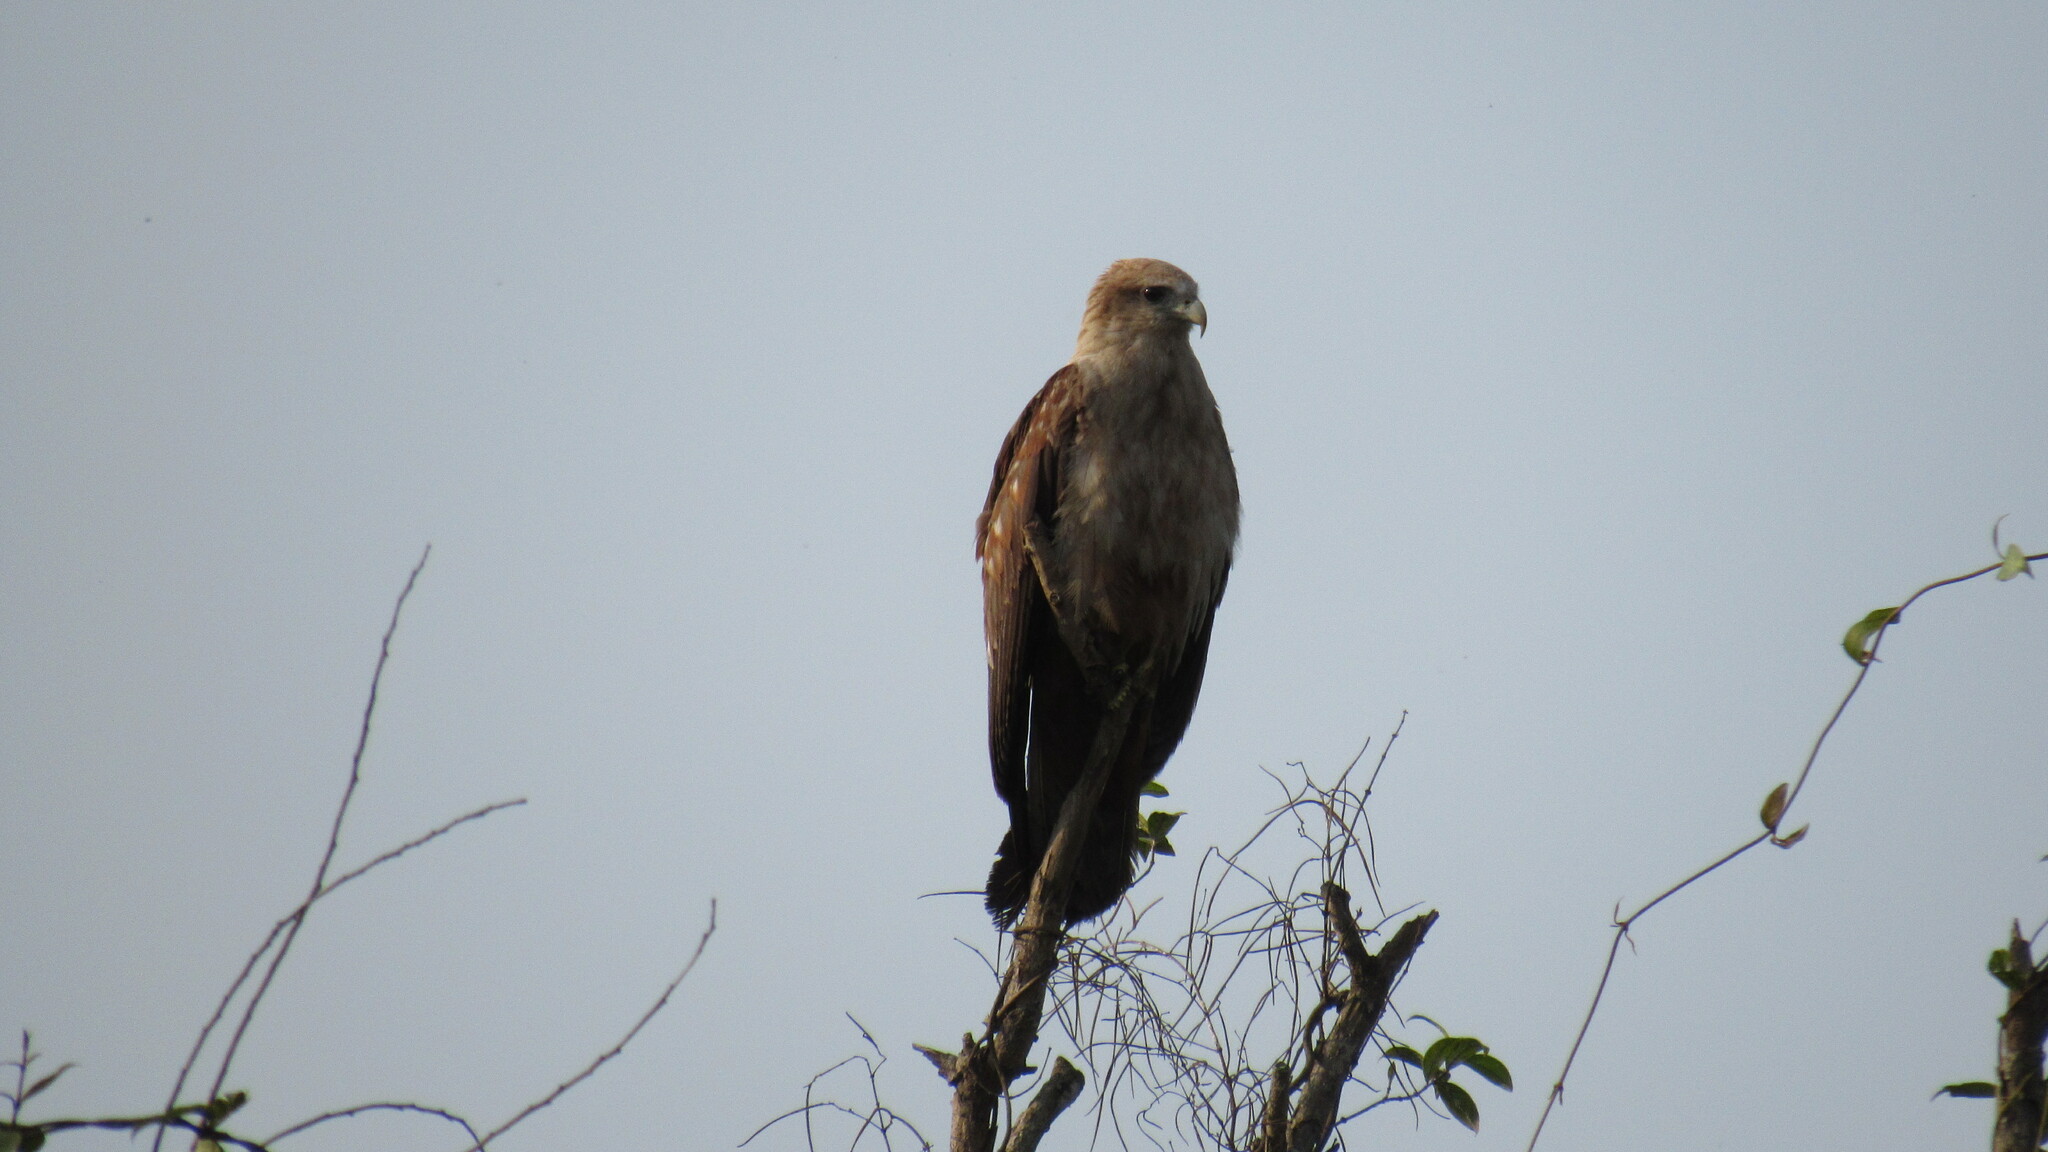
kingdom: Animalia
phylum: Chordata
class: Aves
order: Accipitriformes
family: Accipitridae
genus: Haliastur
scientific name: Haliastur indus
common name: Brahminy kite
